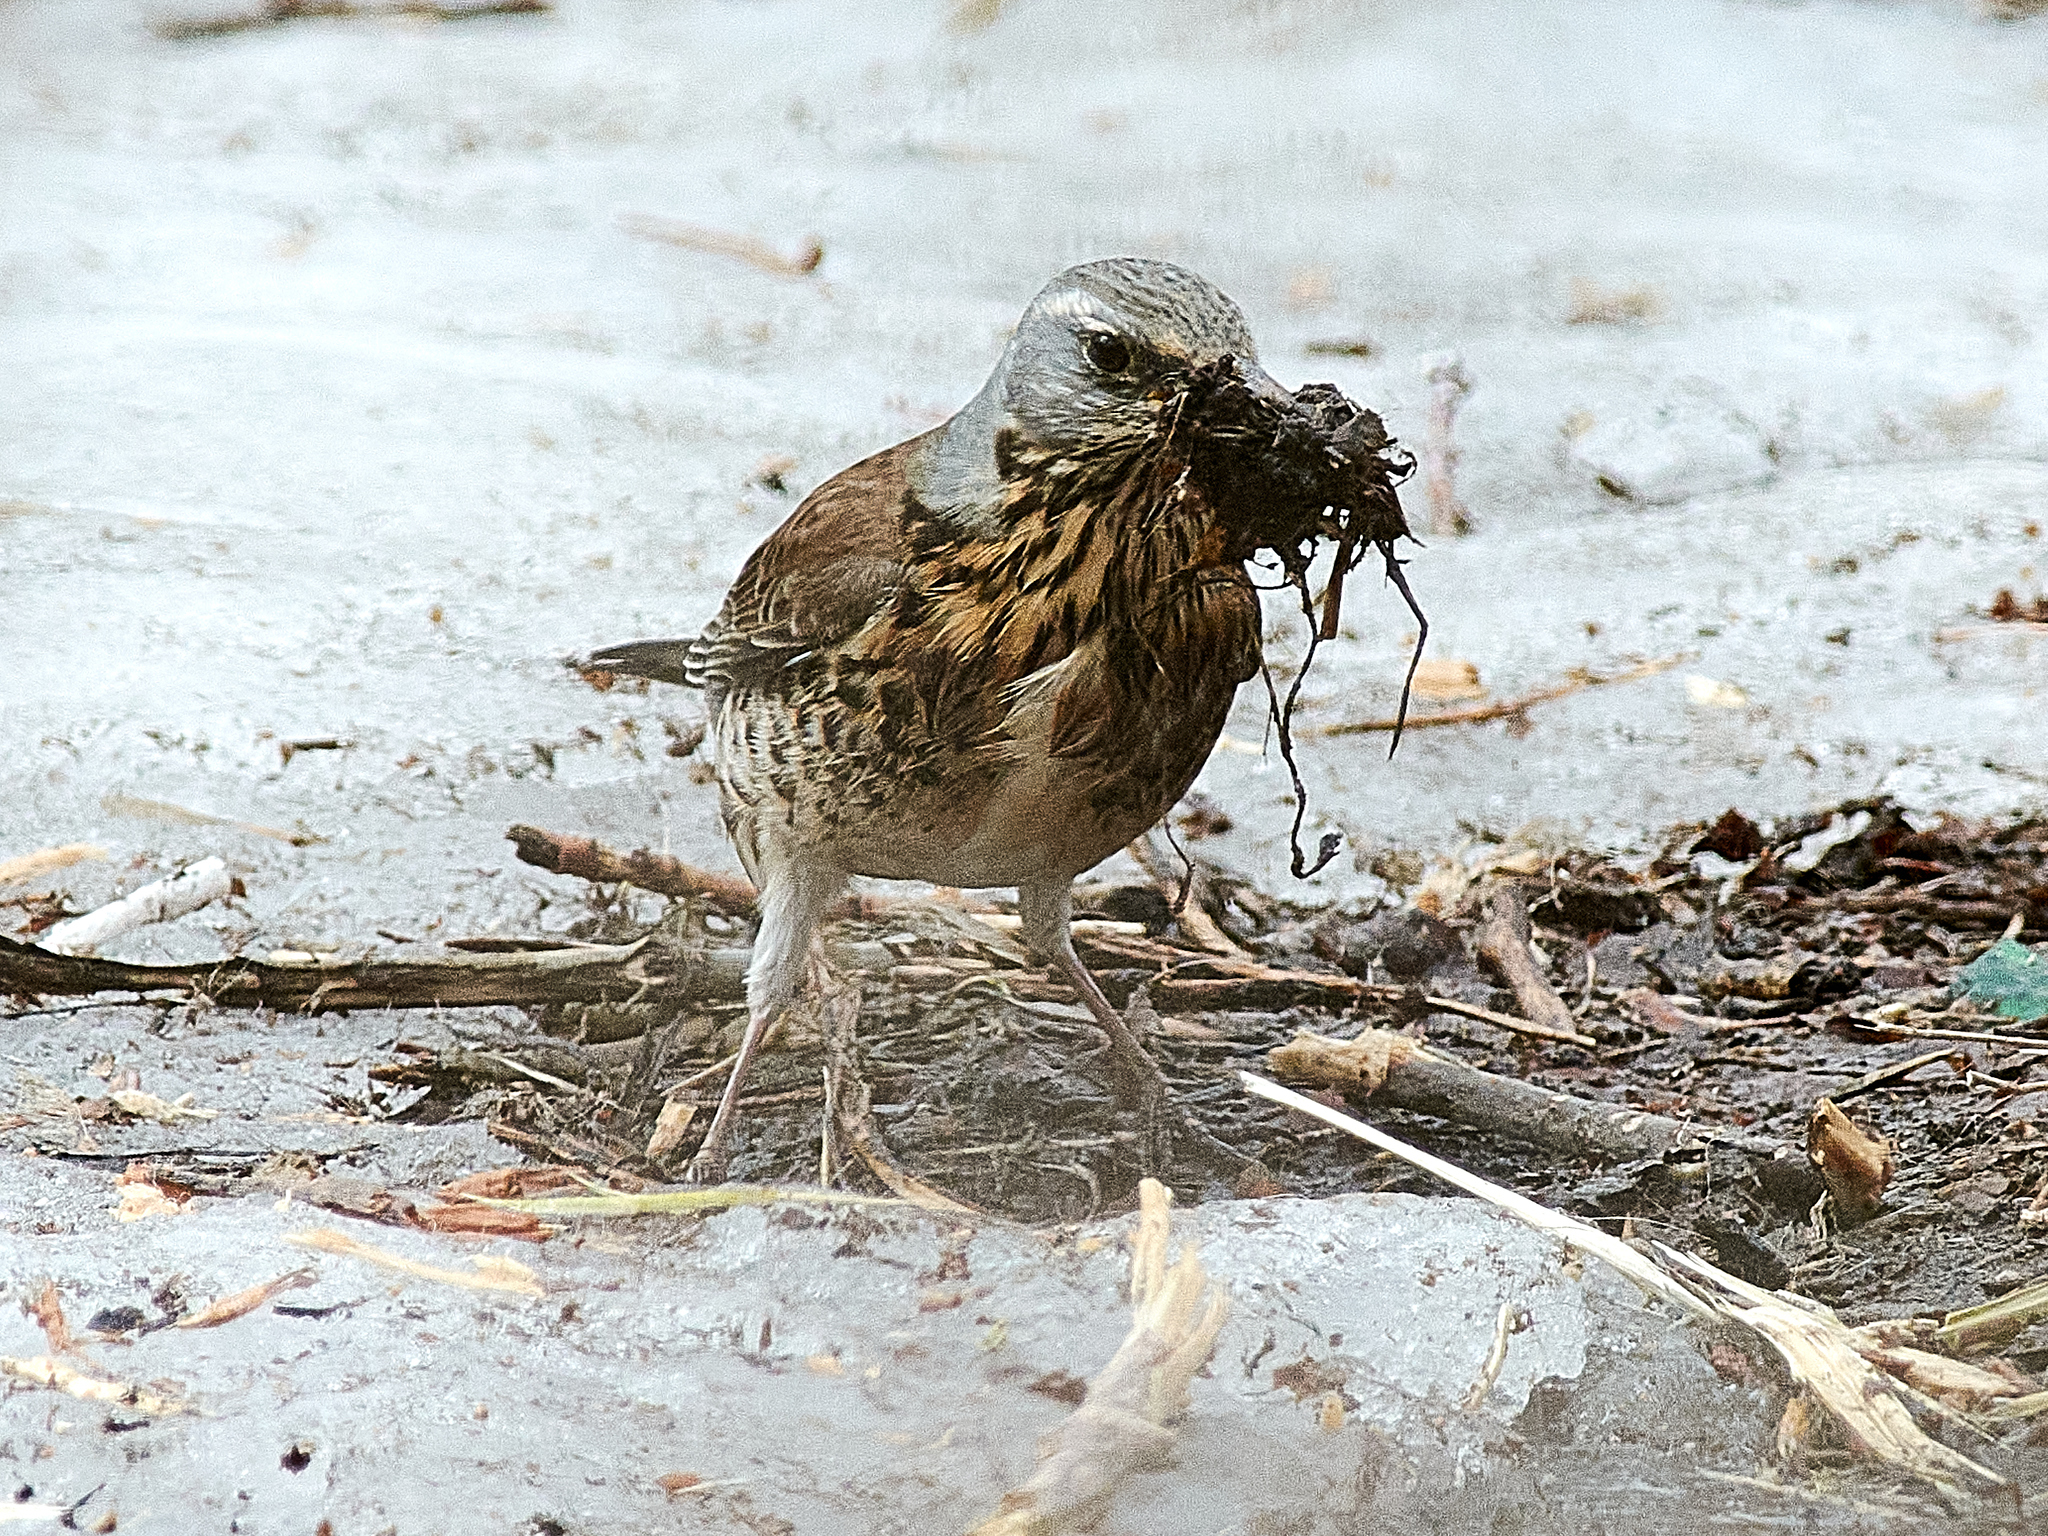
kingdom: Animalia
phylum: Chordata
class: Aves
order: Passeriformes
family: Turdidae
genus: Turdus
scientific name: Turdus pilaris
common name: Fieldfare
